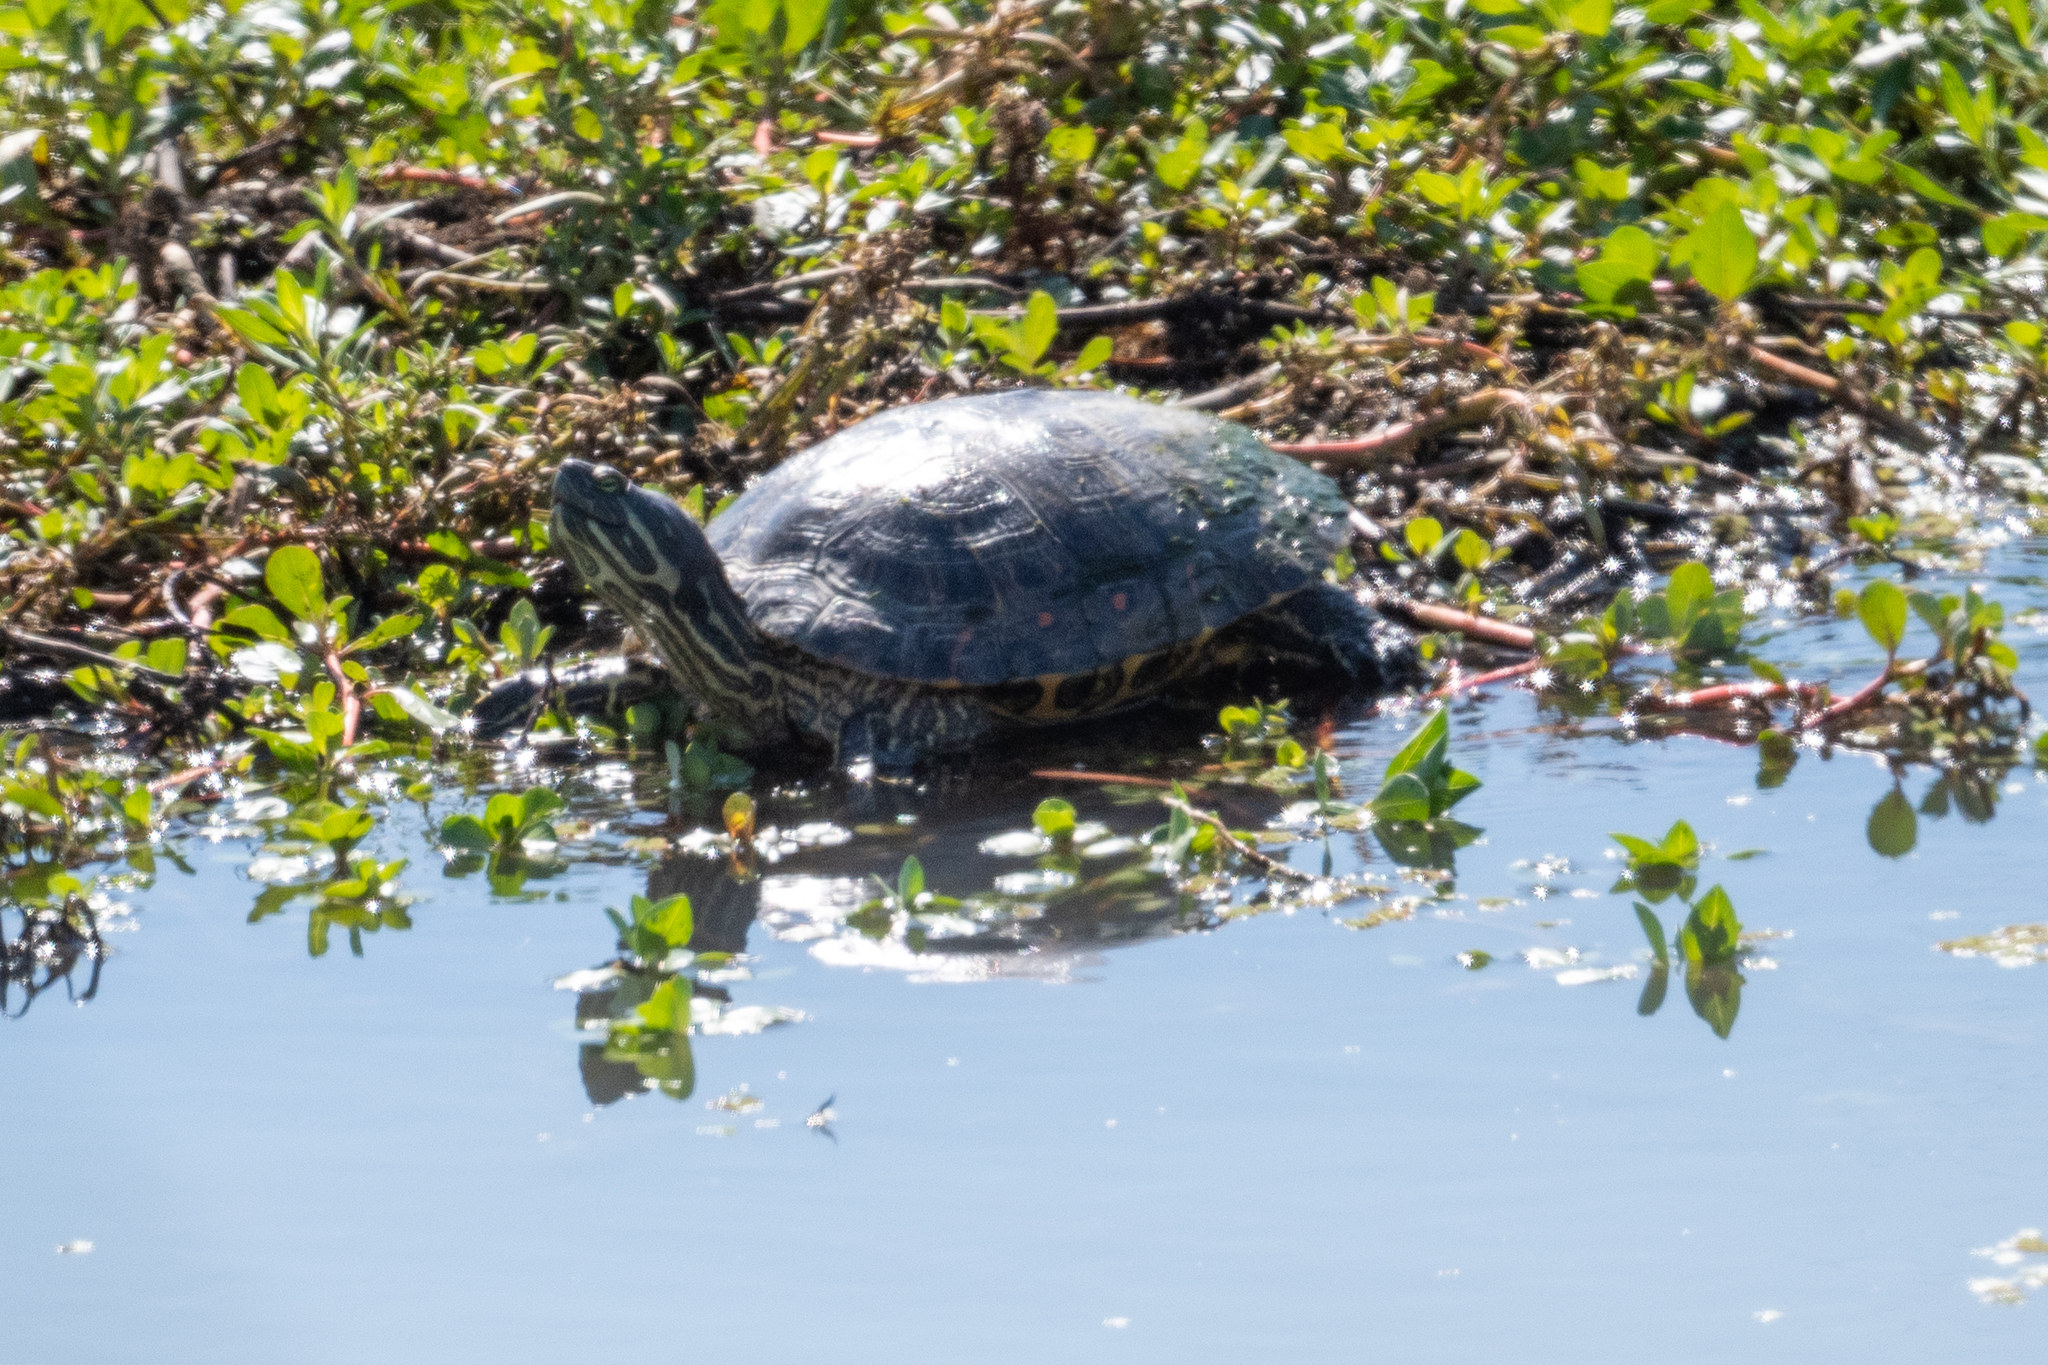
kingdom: Animalia
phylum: Chordata
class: Testudines
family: Emydidae
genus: Trachemys
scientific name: Trachemys scripta
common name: Slider
